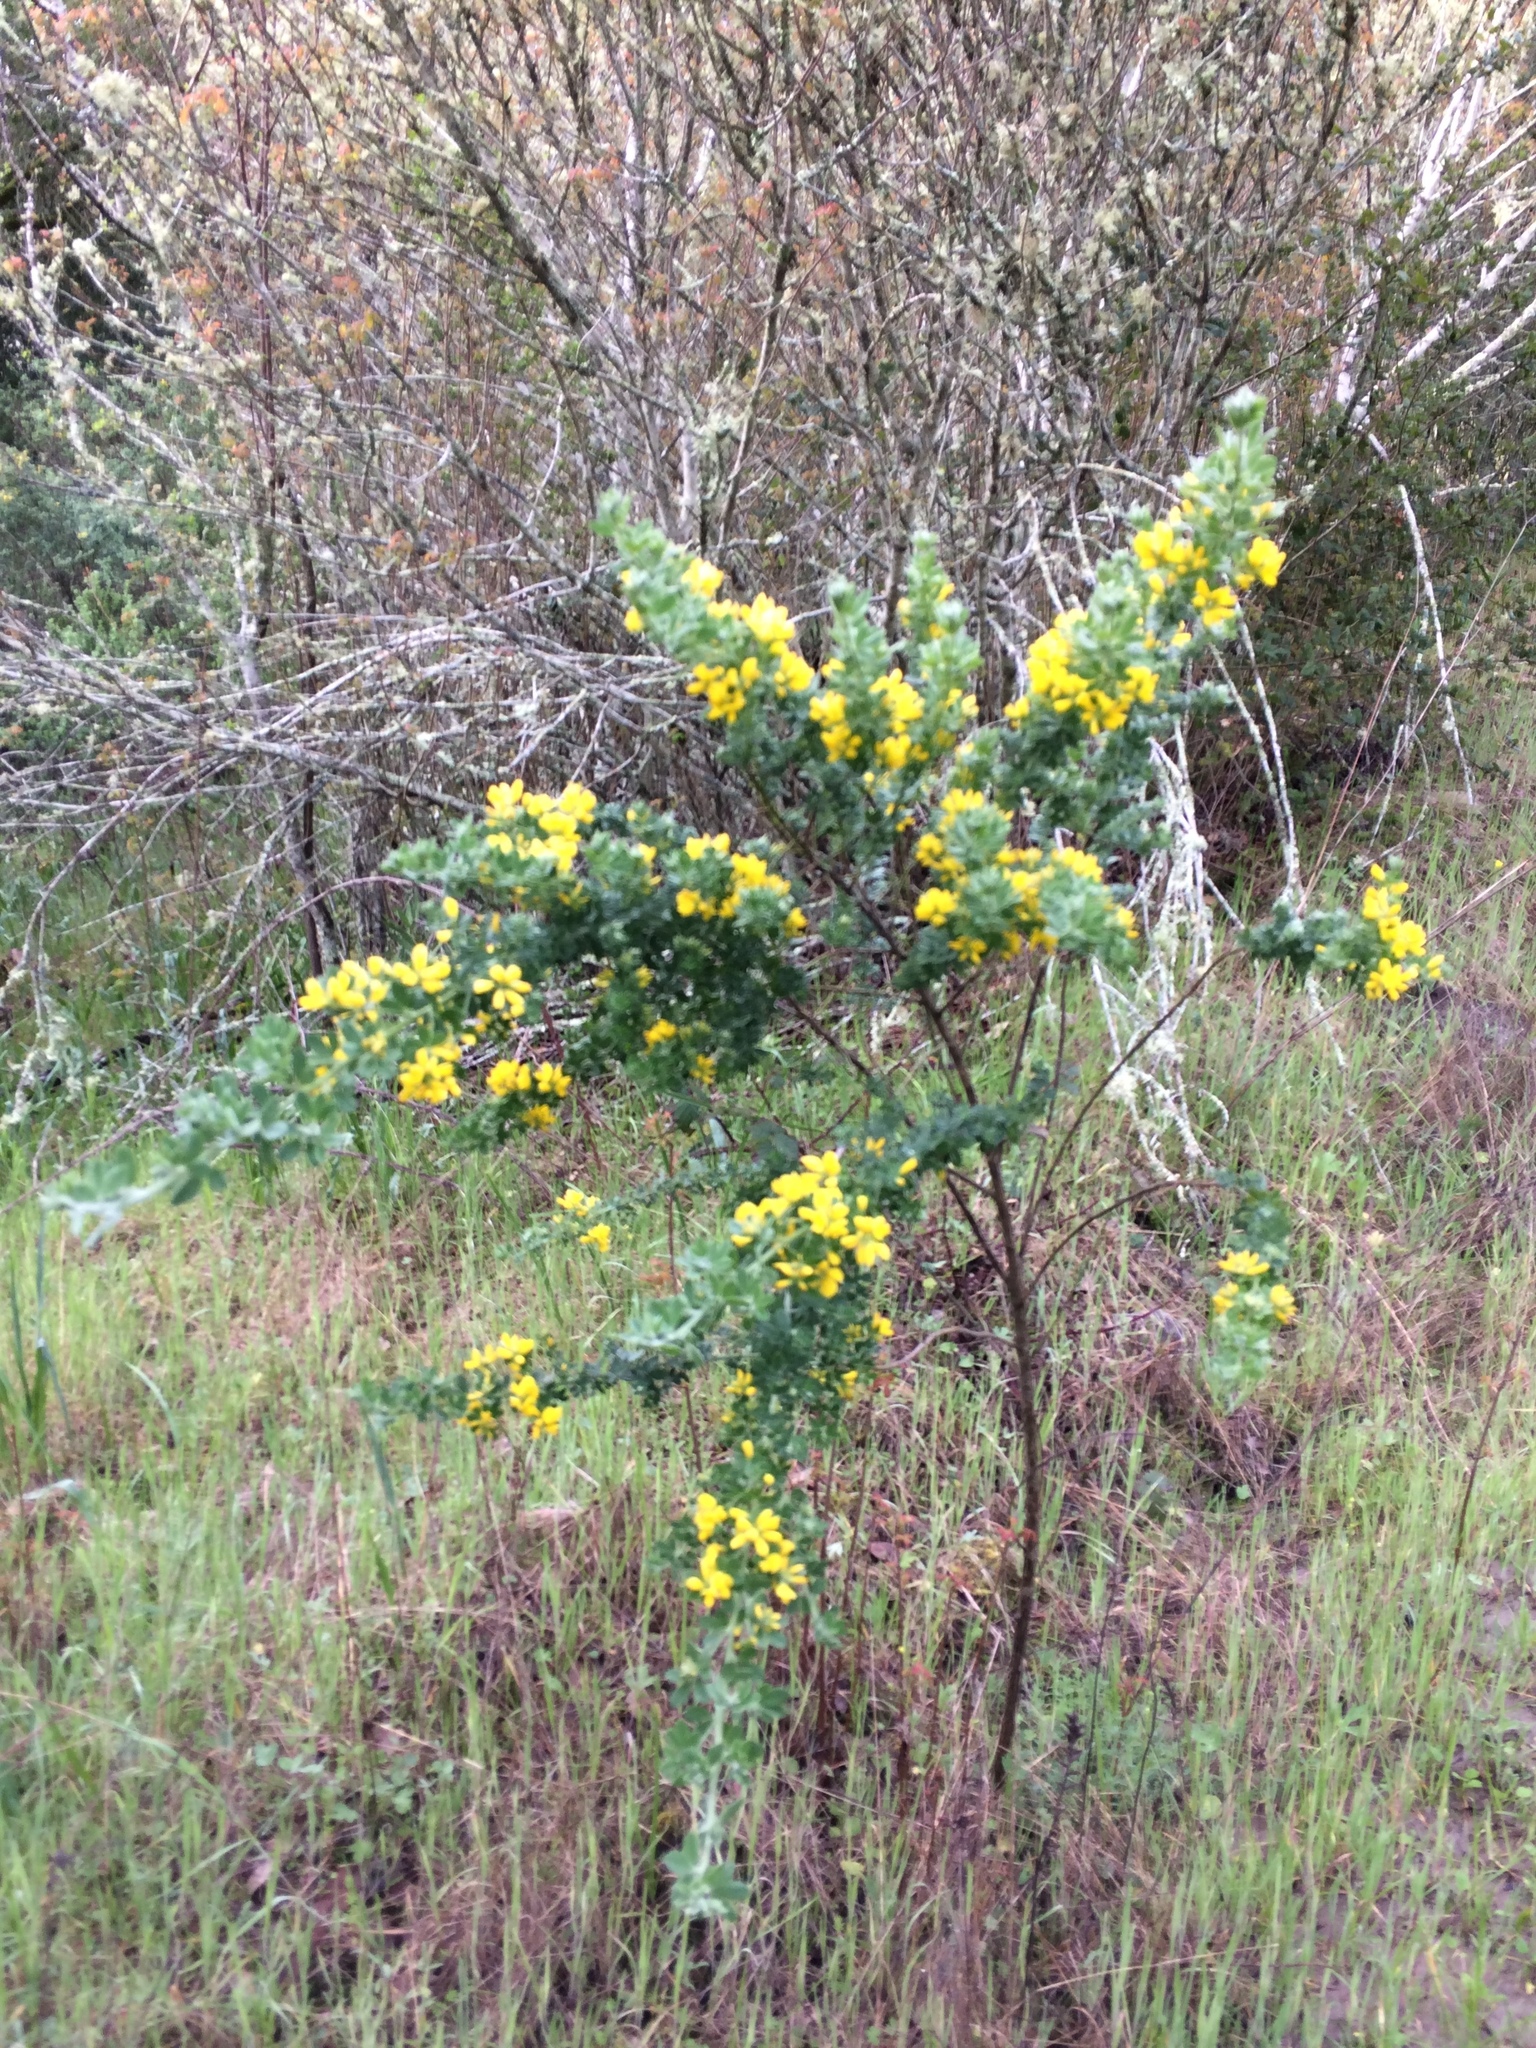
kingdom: Plantae
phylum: Tracheophyta
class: Magnoliopsida
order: Fabales
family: Fabaceae
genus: Genista
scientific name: Genista monspessulana
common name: Montpellier broom
